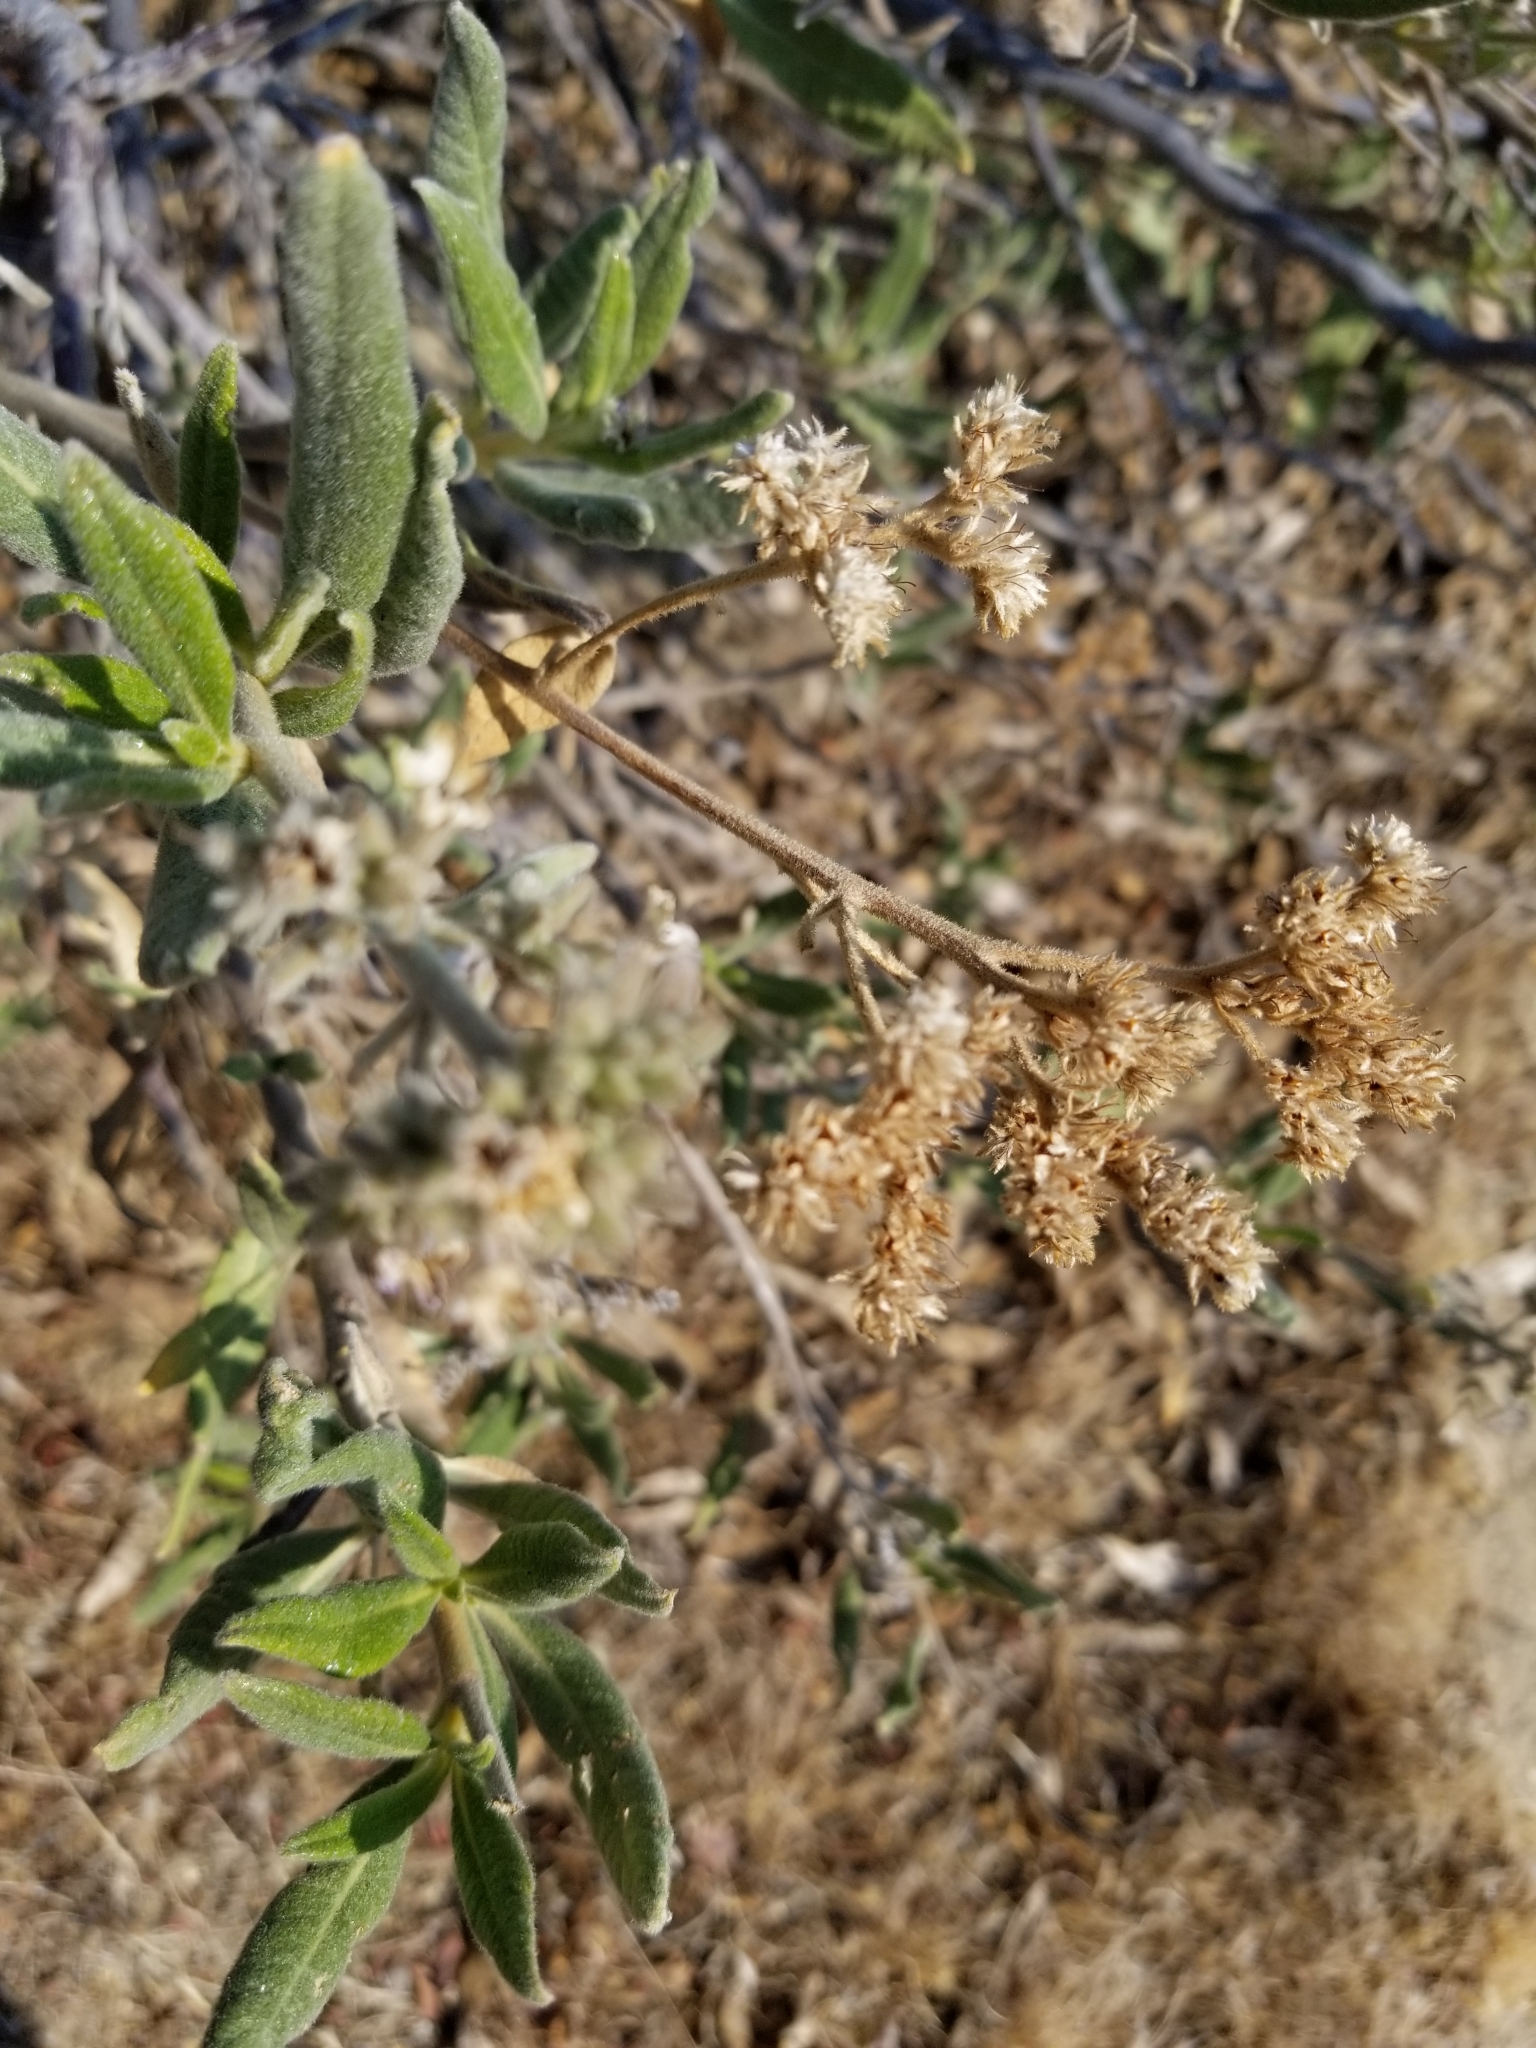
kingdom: Plantae
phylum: Tracheophyta
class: Magnoliopsida
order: Boraginales
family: Namaceae
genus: Eriodictyon
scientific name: Eriodictyon trichocalyx
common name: Hairy yerba-santa
